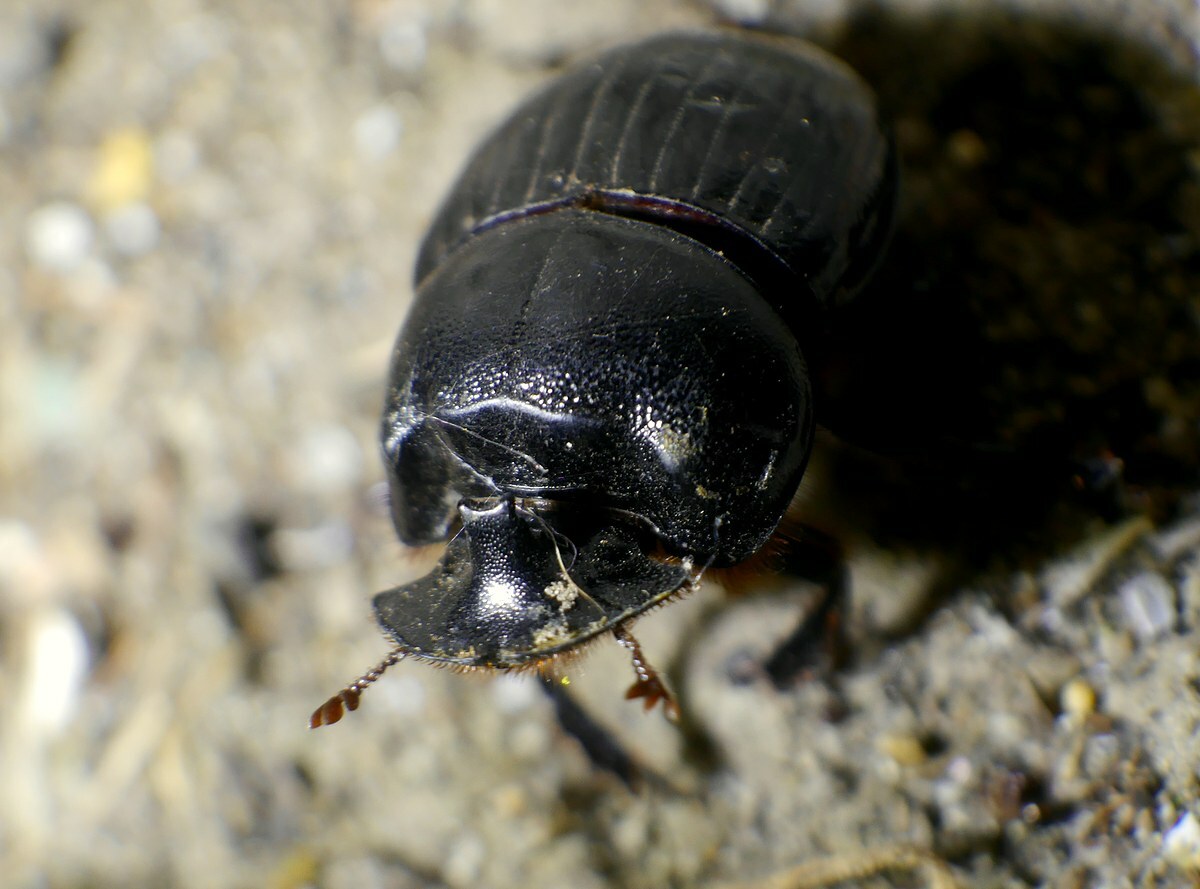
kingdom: Animalia
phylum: Arthropoda
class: Insecta
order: Coleoptera
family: Scarabaeidae
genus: Copris
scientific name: Copris lunaris
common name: Horned dung beetle
